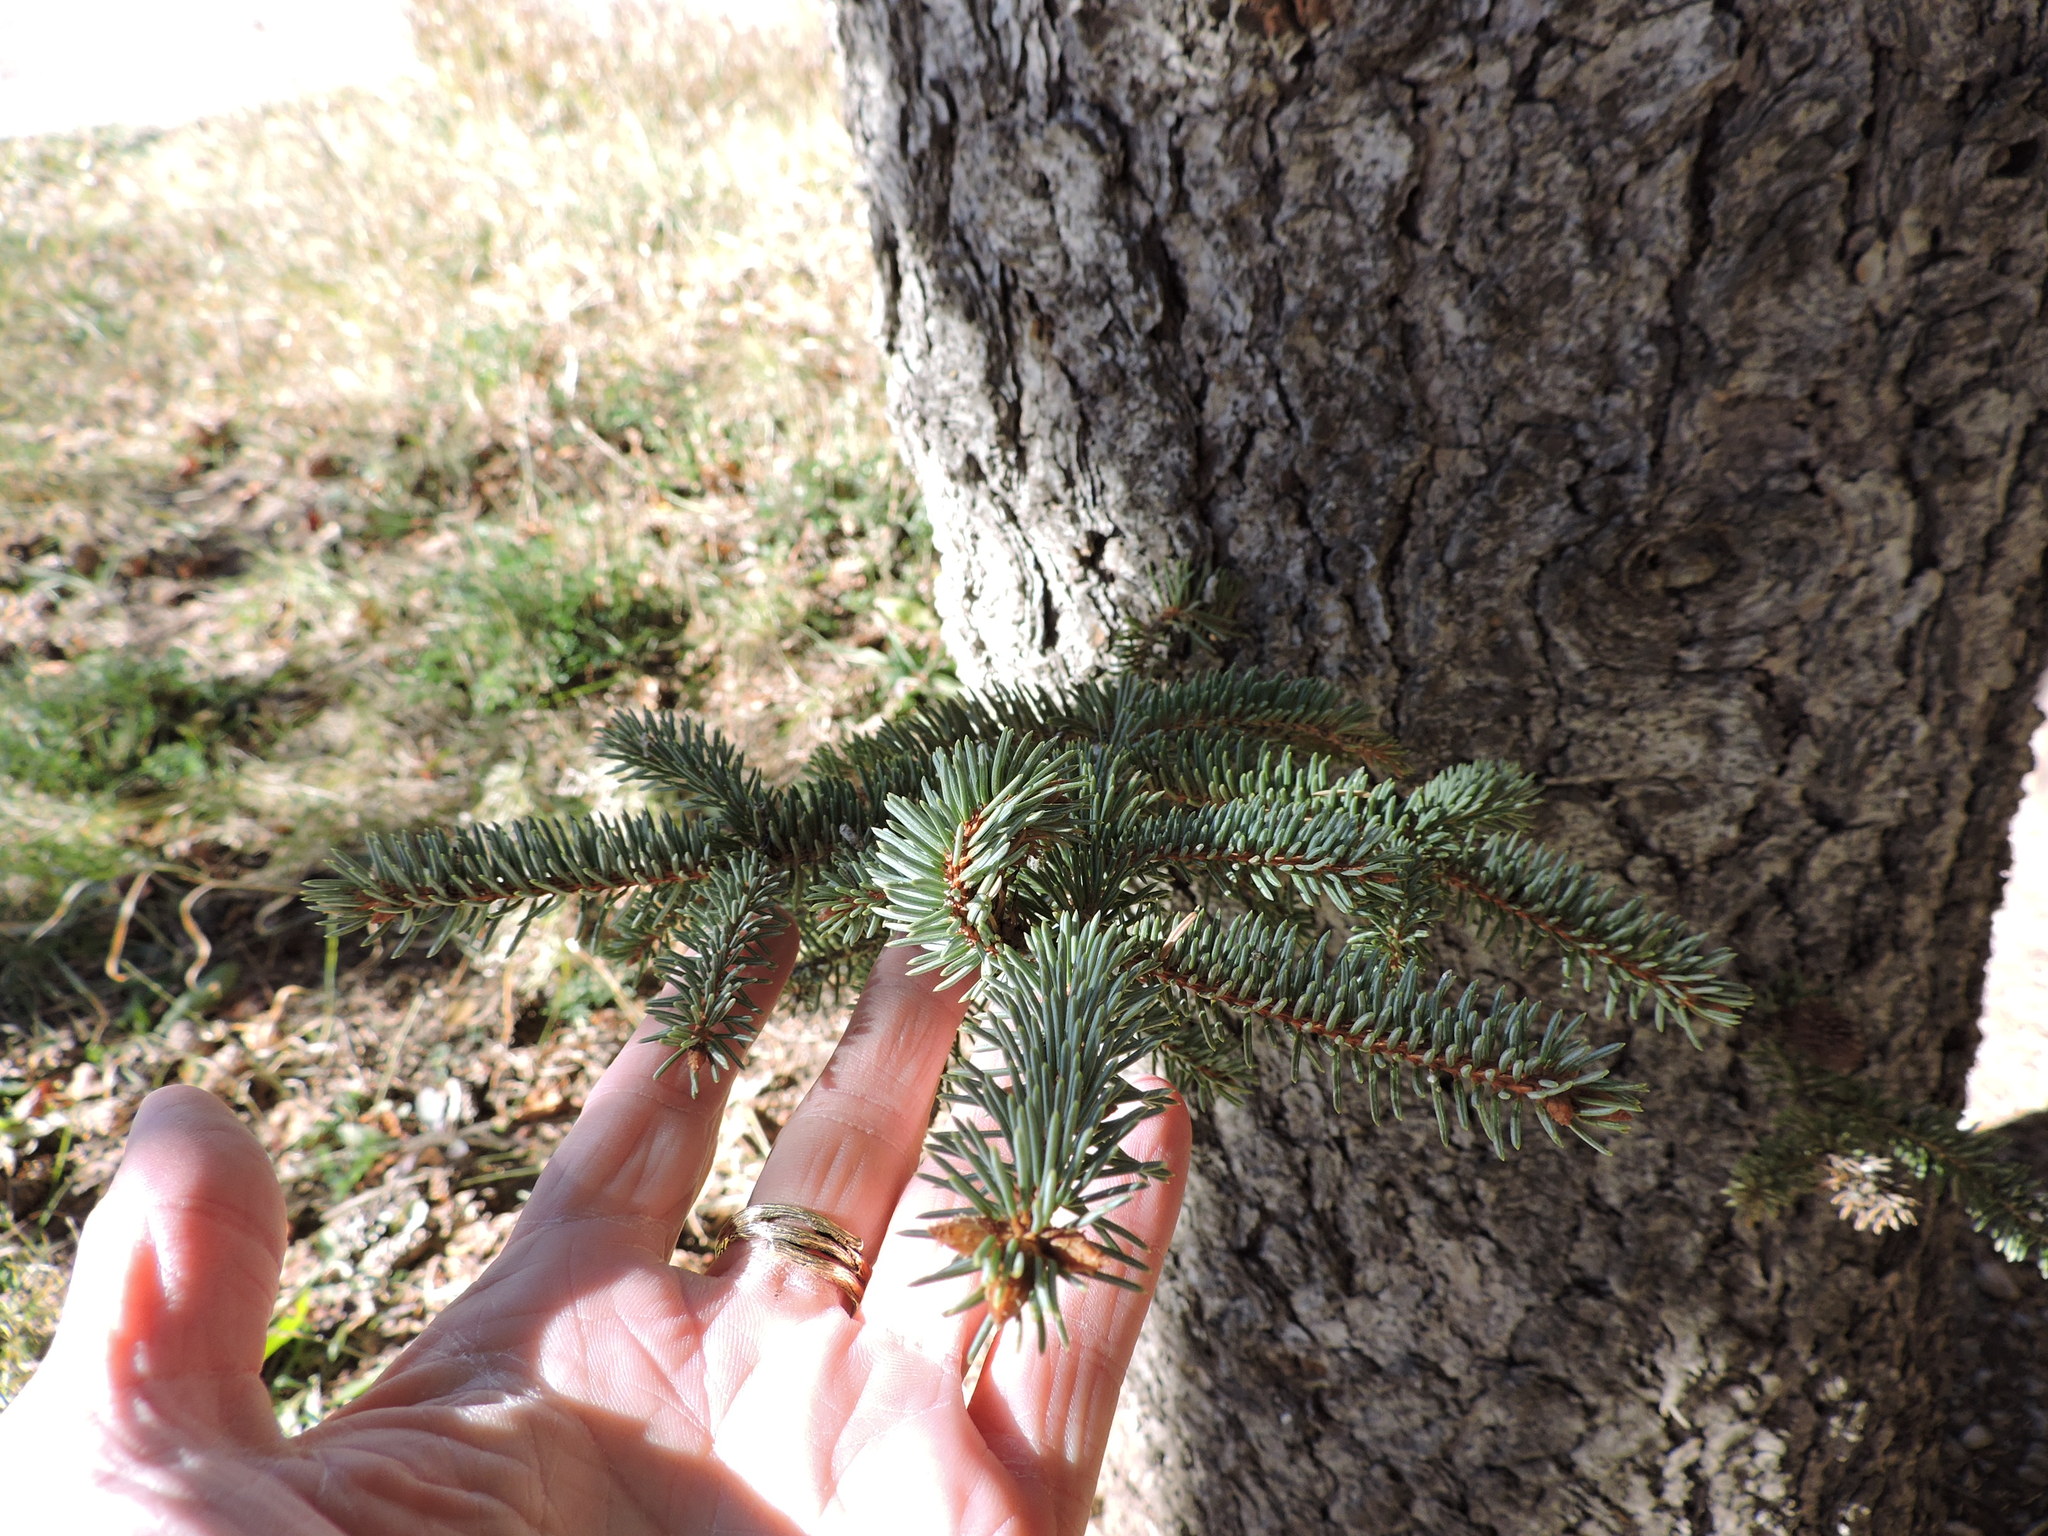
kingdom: Plantae
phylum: Tracheophyta
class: Pinopsida
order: Pinales
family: Pinaceae
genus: Pseudotsuga
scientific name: Pseudotsuga menziesii
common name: Douglas fir
